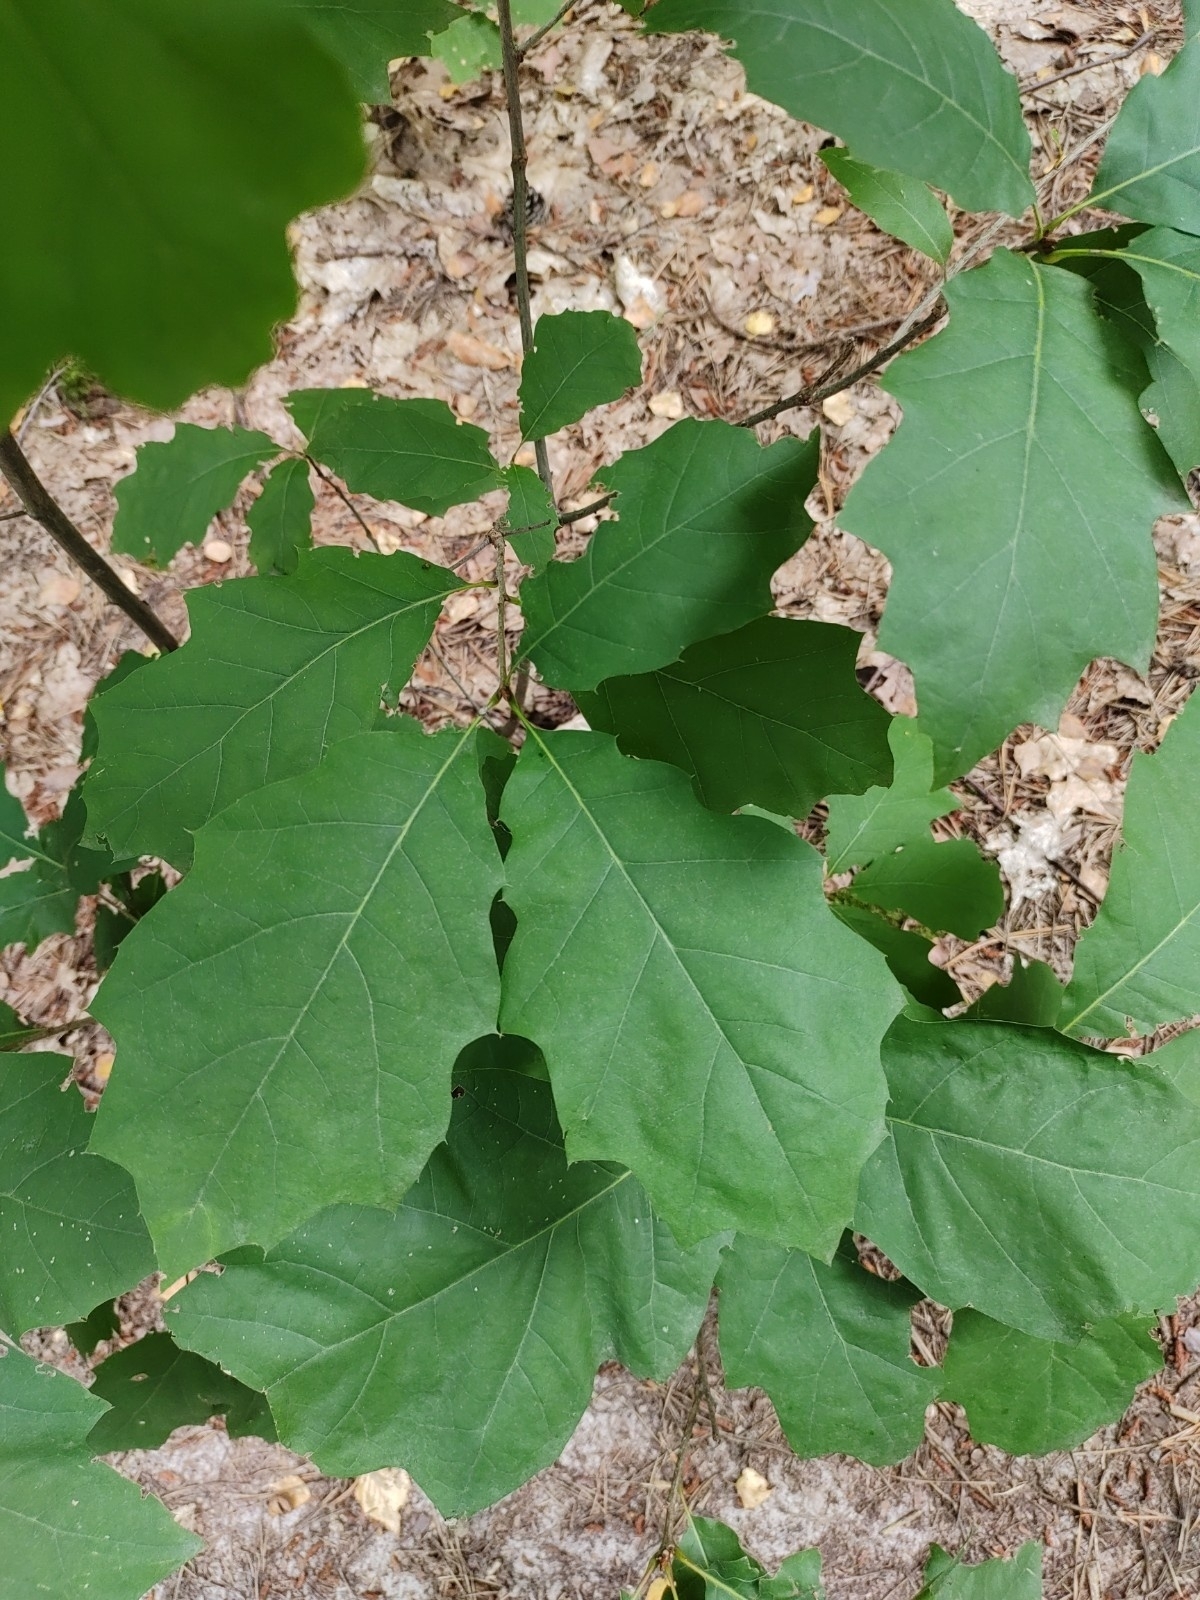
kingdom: Plantae
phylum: Tracheophyta
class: Magnoliopsida
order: Fagales
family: Fagaceae
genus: Quercus
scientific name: Quercus rubra
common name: Red oak
